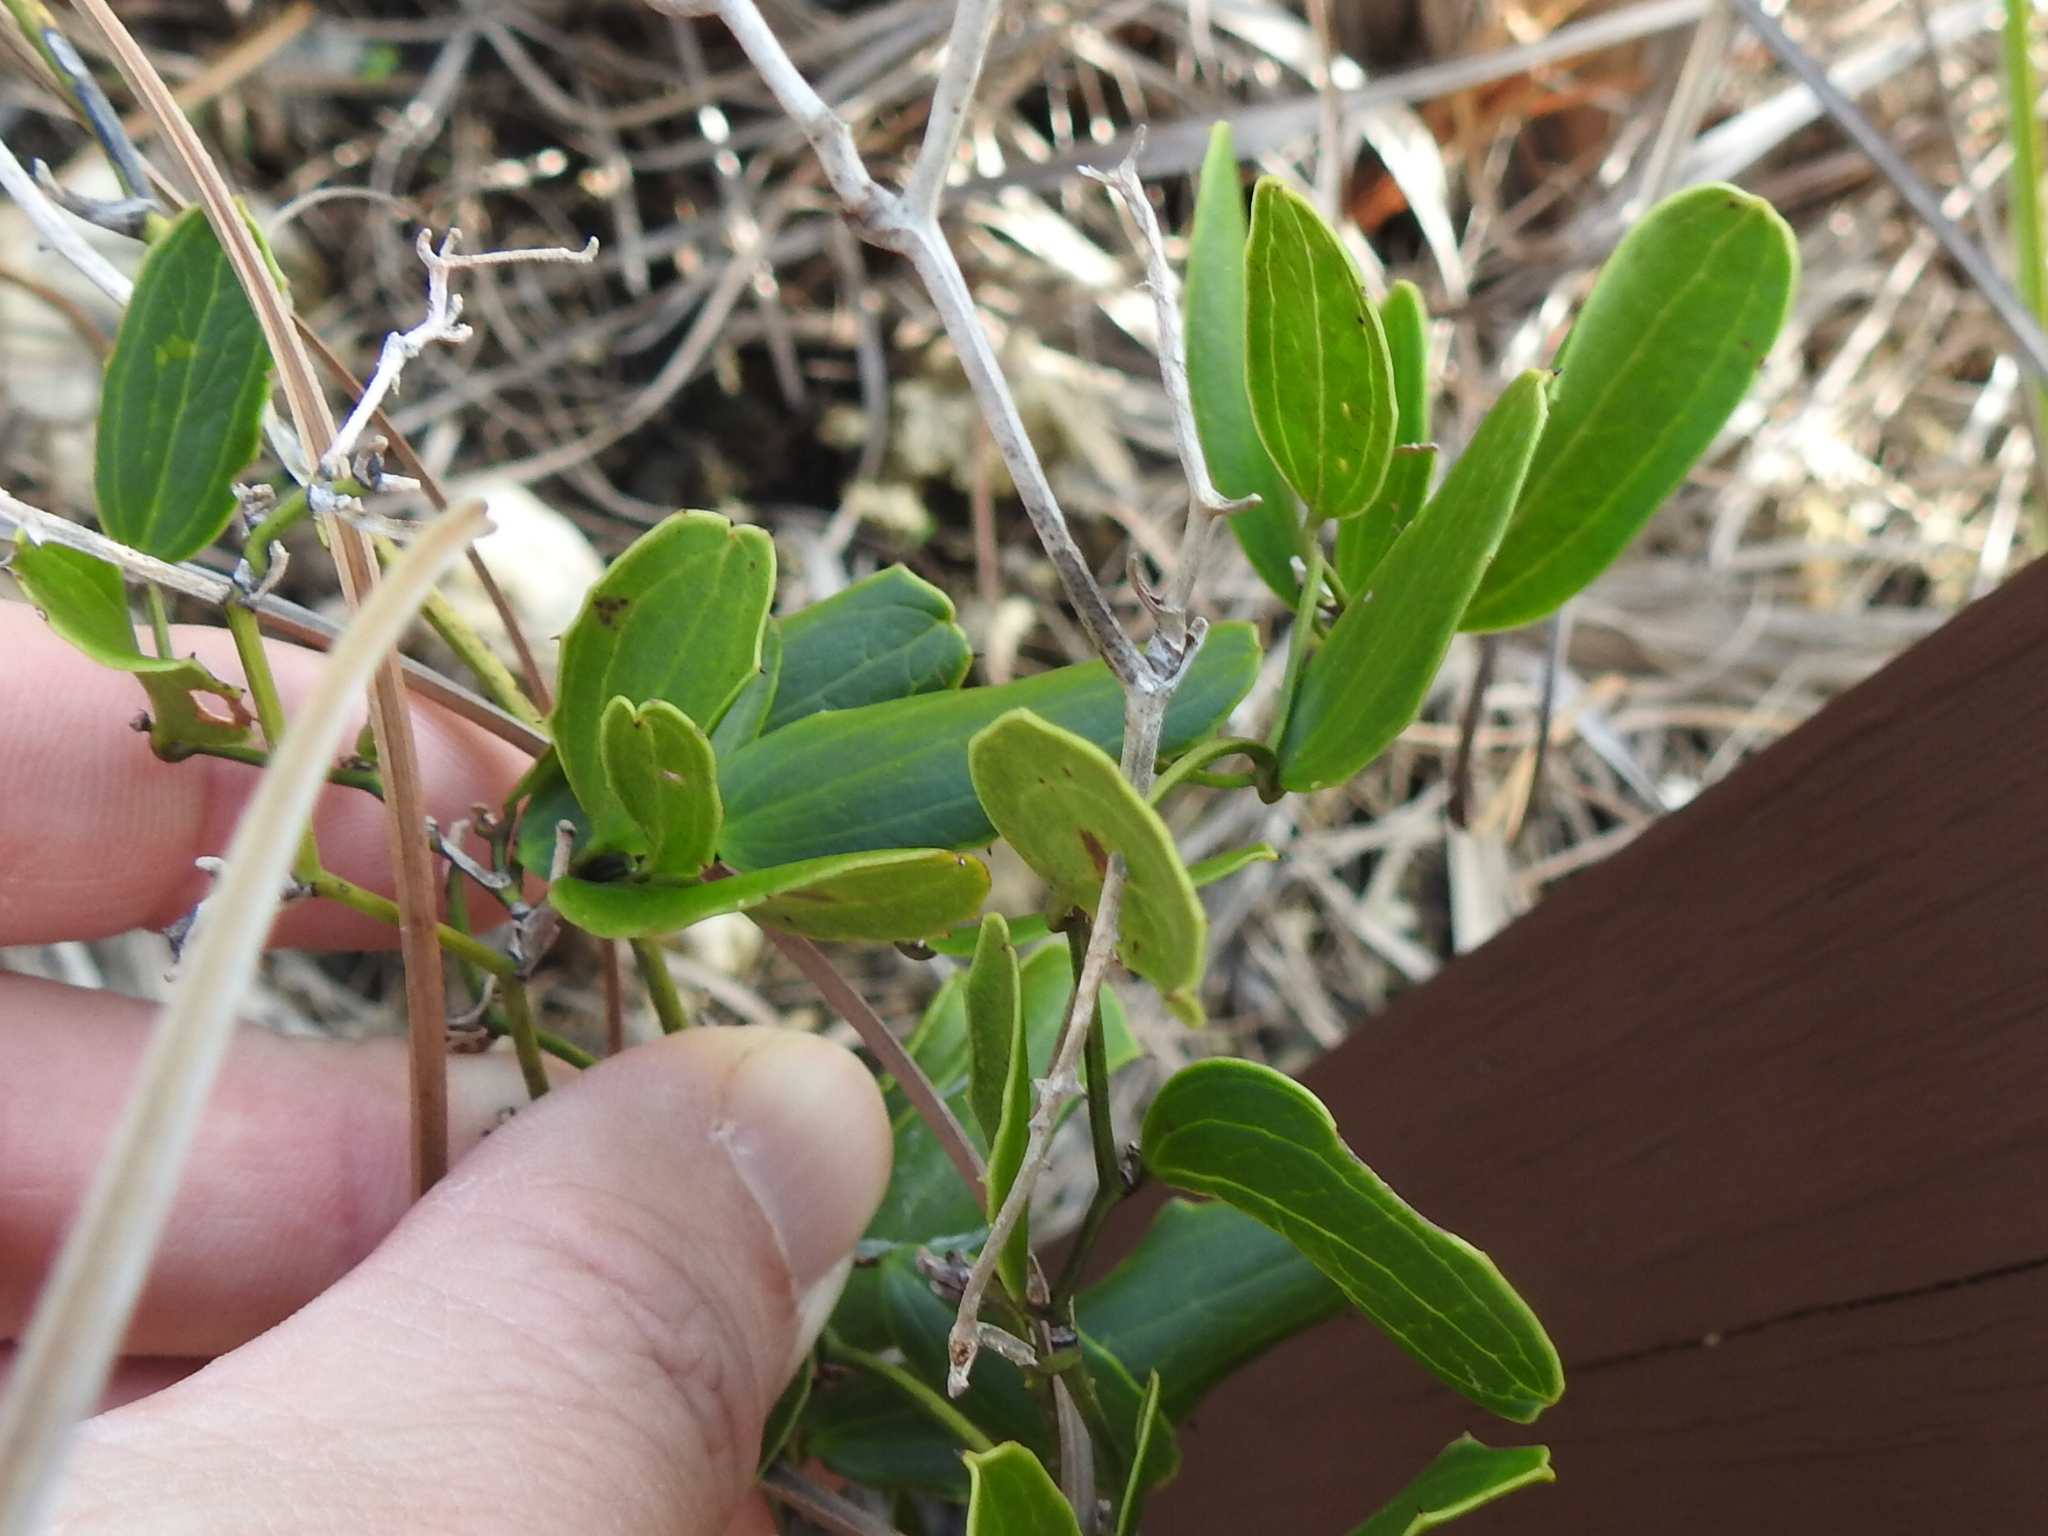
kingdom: Plantae
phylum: Tracheophyta
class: Liliopsida
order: Liliales
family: Smilacaceae
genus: Smilax
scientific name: Smilax havanensis
